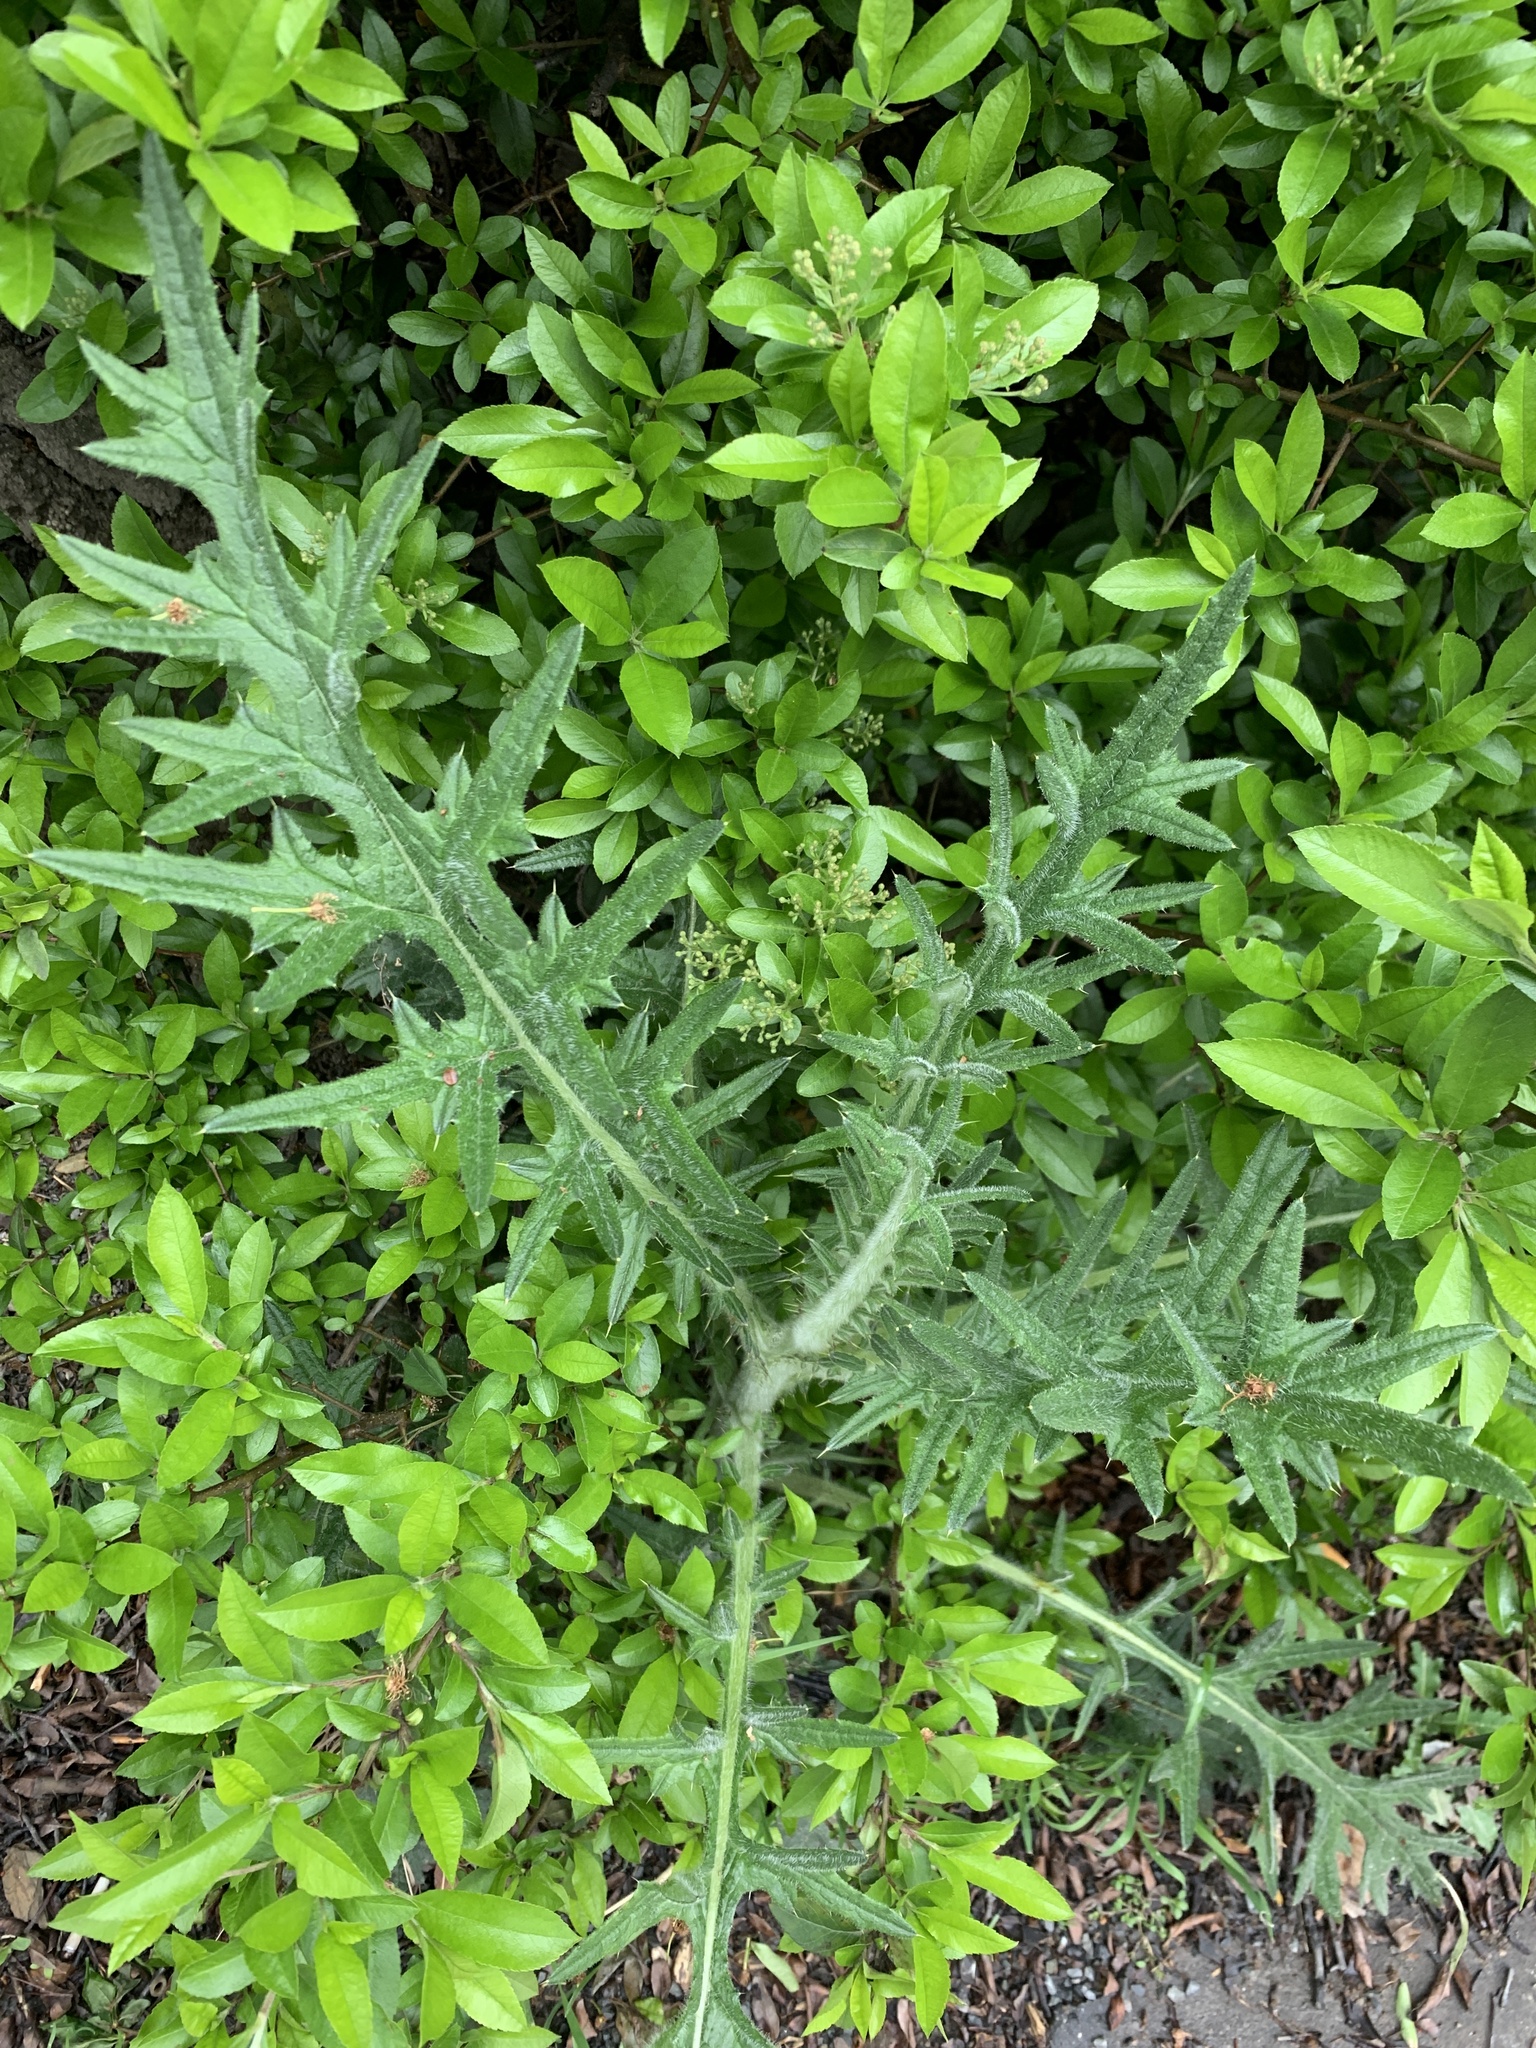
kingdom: Plantae
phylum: Tracheophyta
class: Magnoliopsida
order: Asterales
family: Asteraceae
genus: Cirsium
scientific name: Cirsium vulgare
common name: Bull thistle
